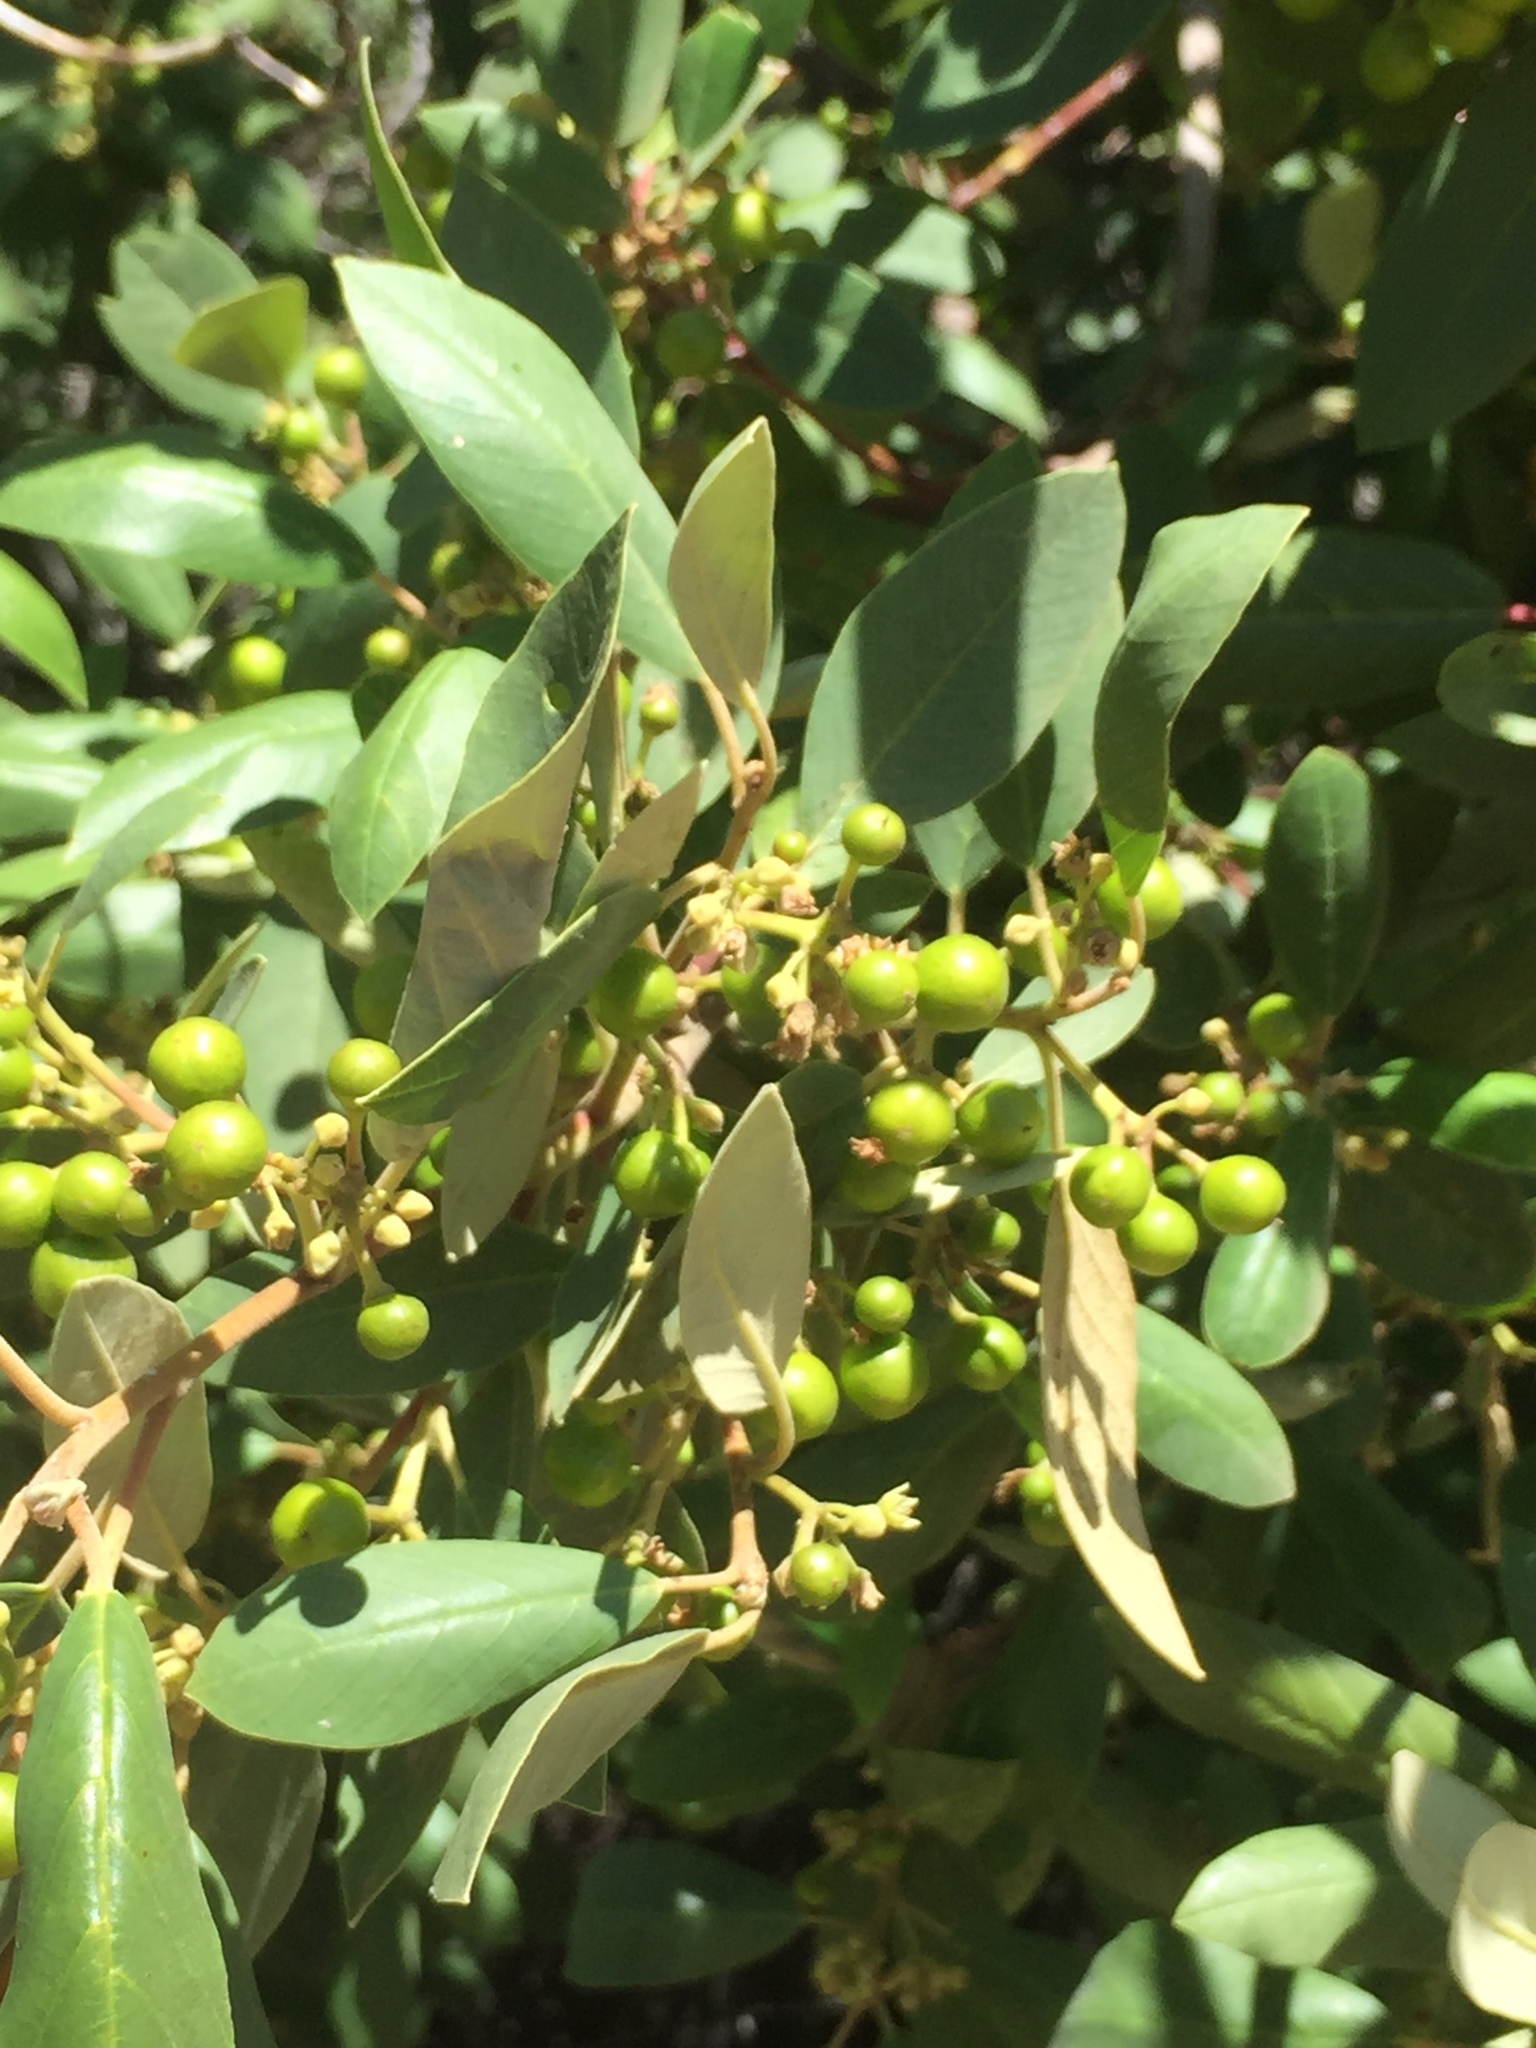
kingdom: Plantae
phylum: Tracheophyta
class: Magnoliopsida
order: Rosales
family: Rhamnaceae
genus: Frangula
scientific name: Frangula californica
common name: California buckthorn
